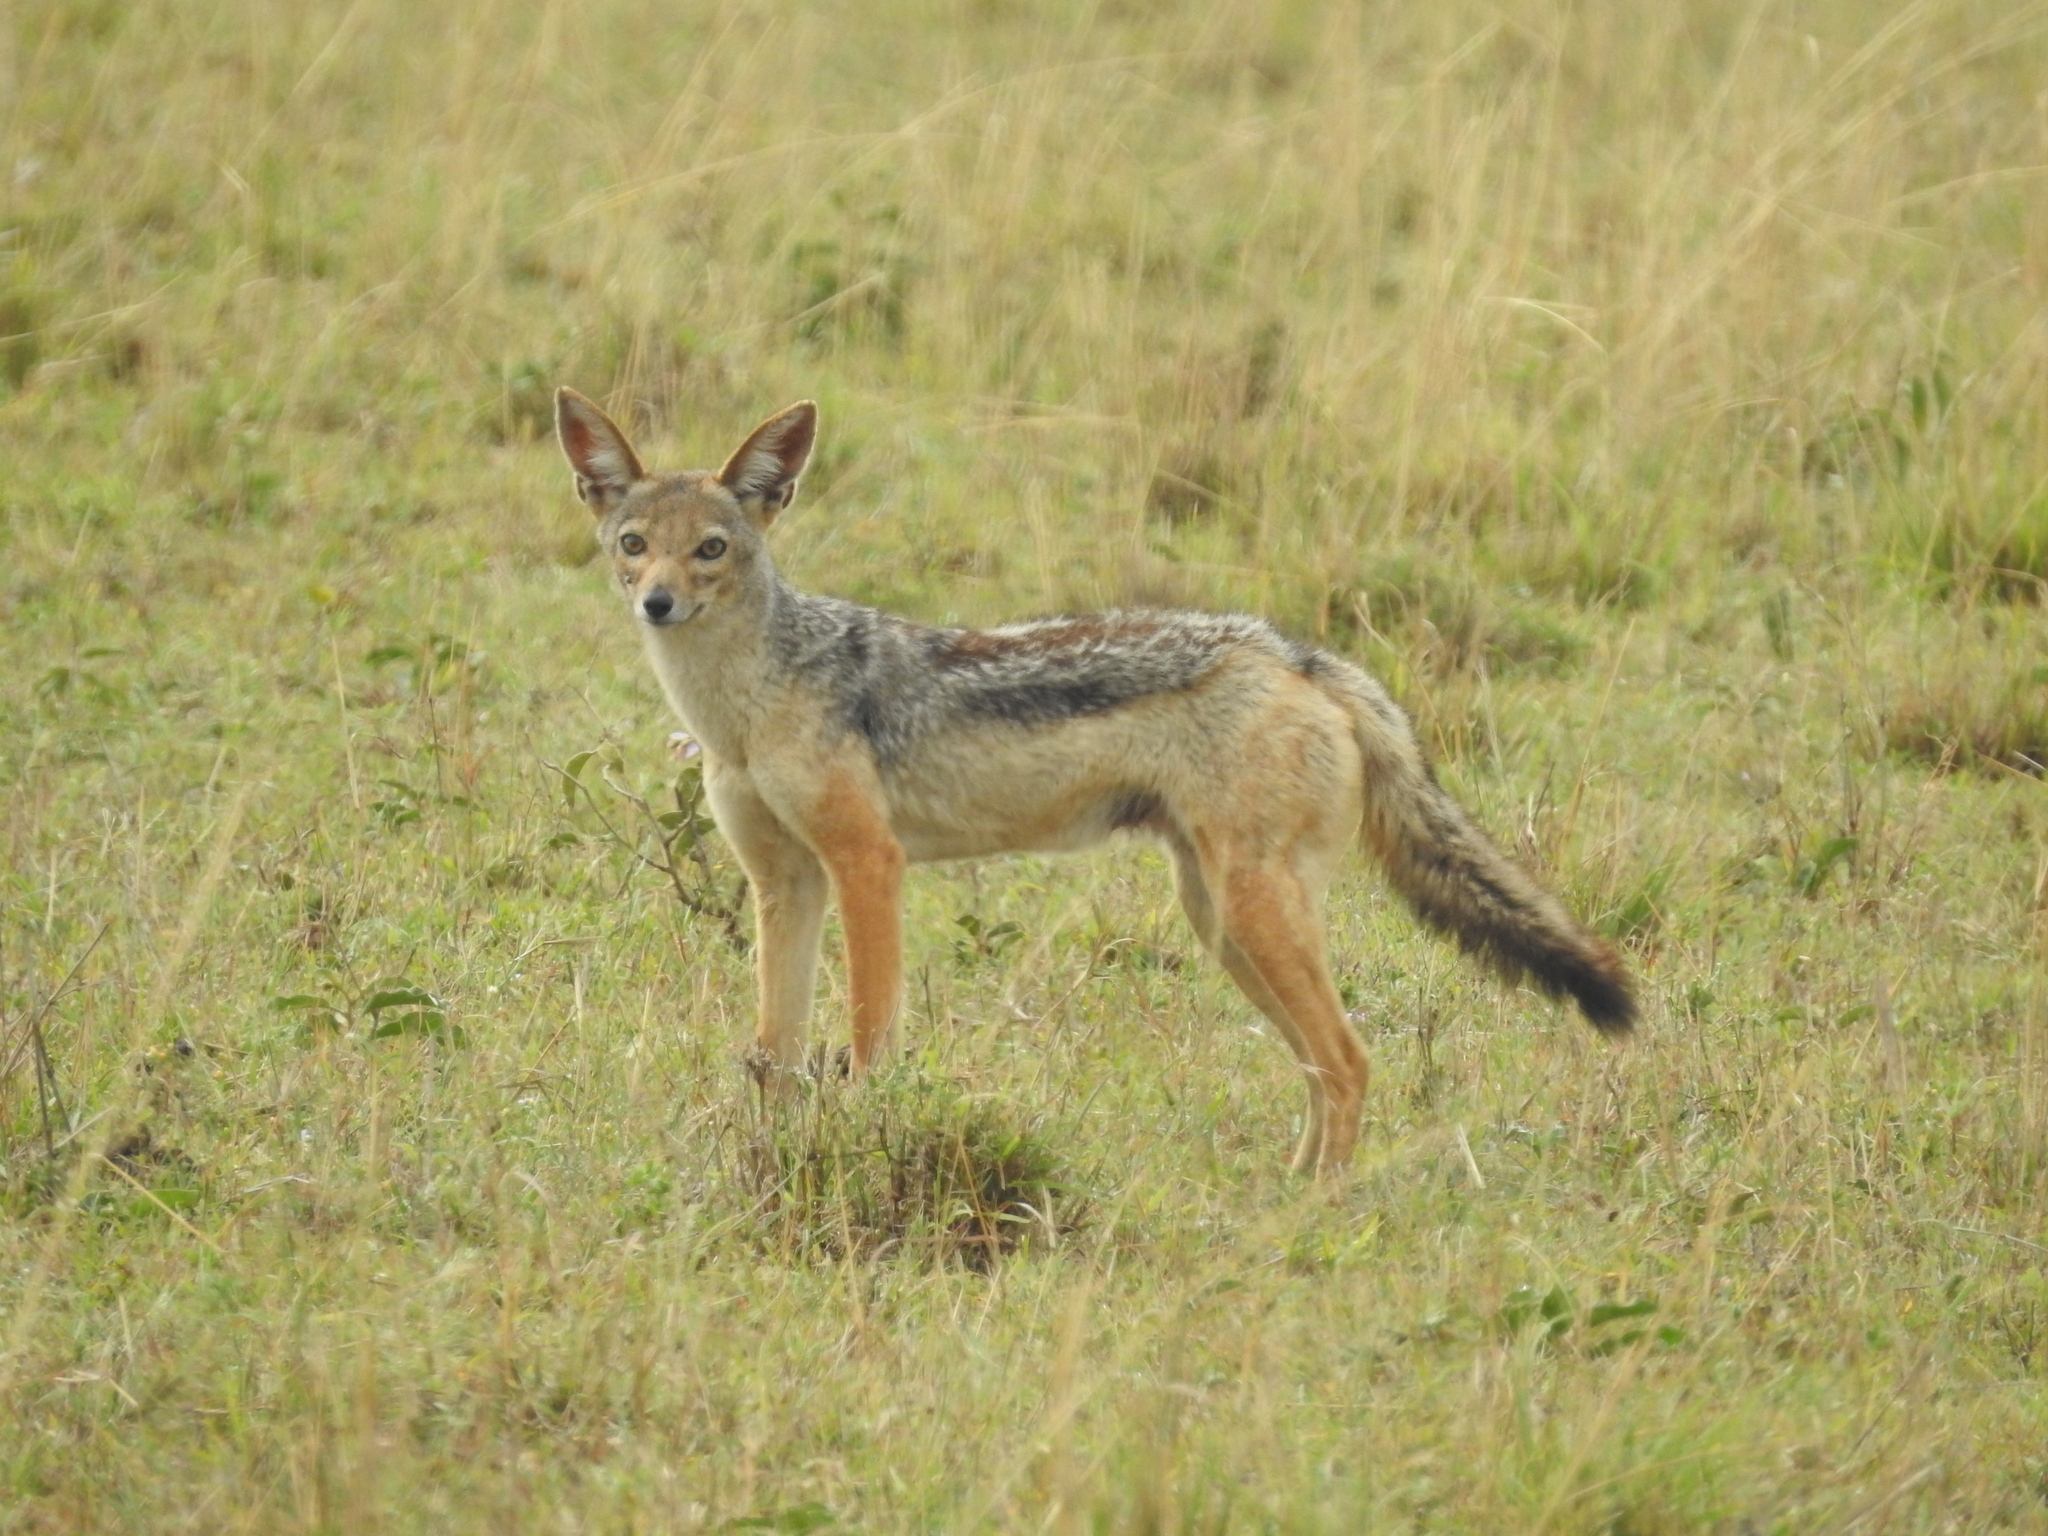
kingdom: Animalia
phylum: Chordata
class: Mammalia
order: Carnivora
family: Canidae
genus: Lupulella
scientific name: Lupulella
